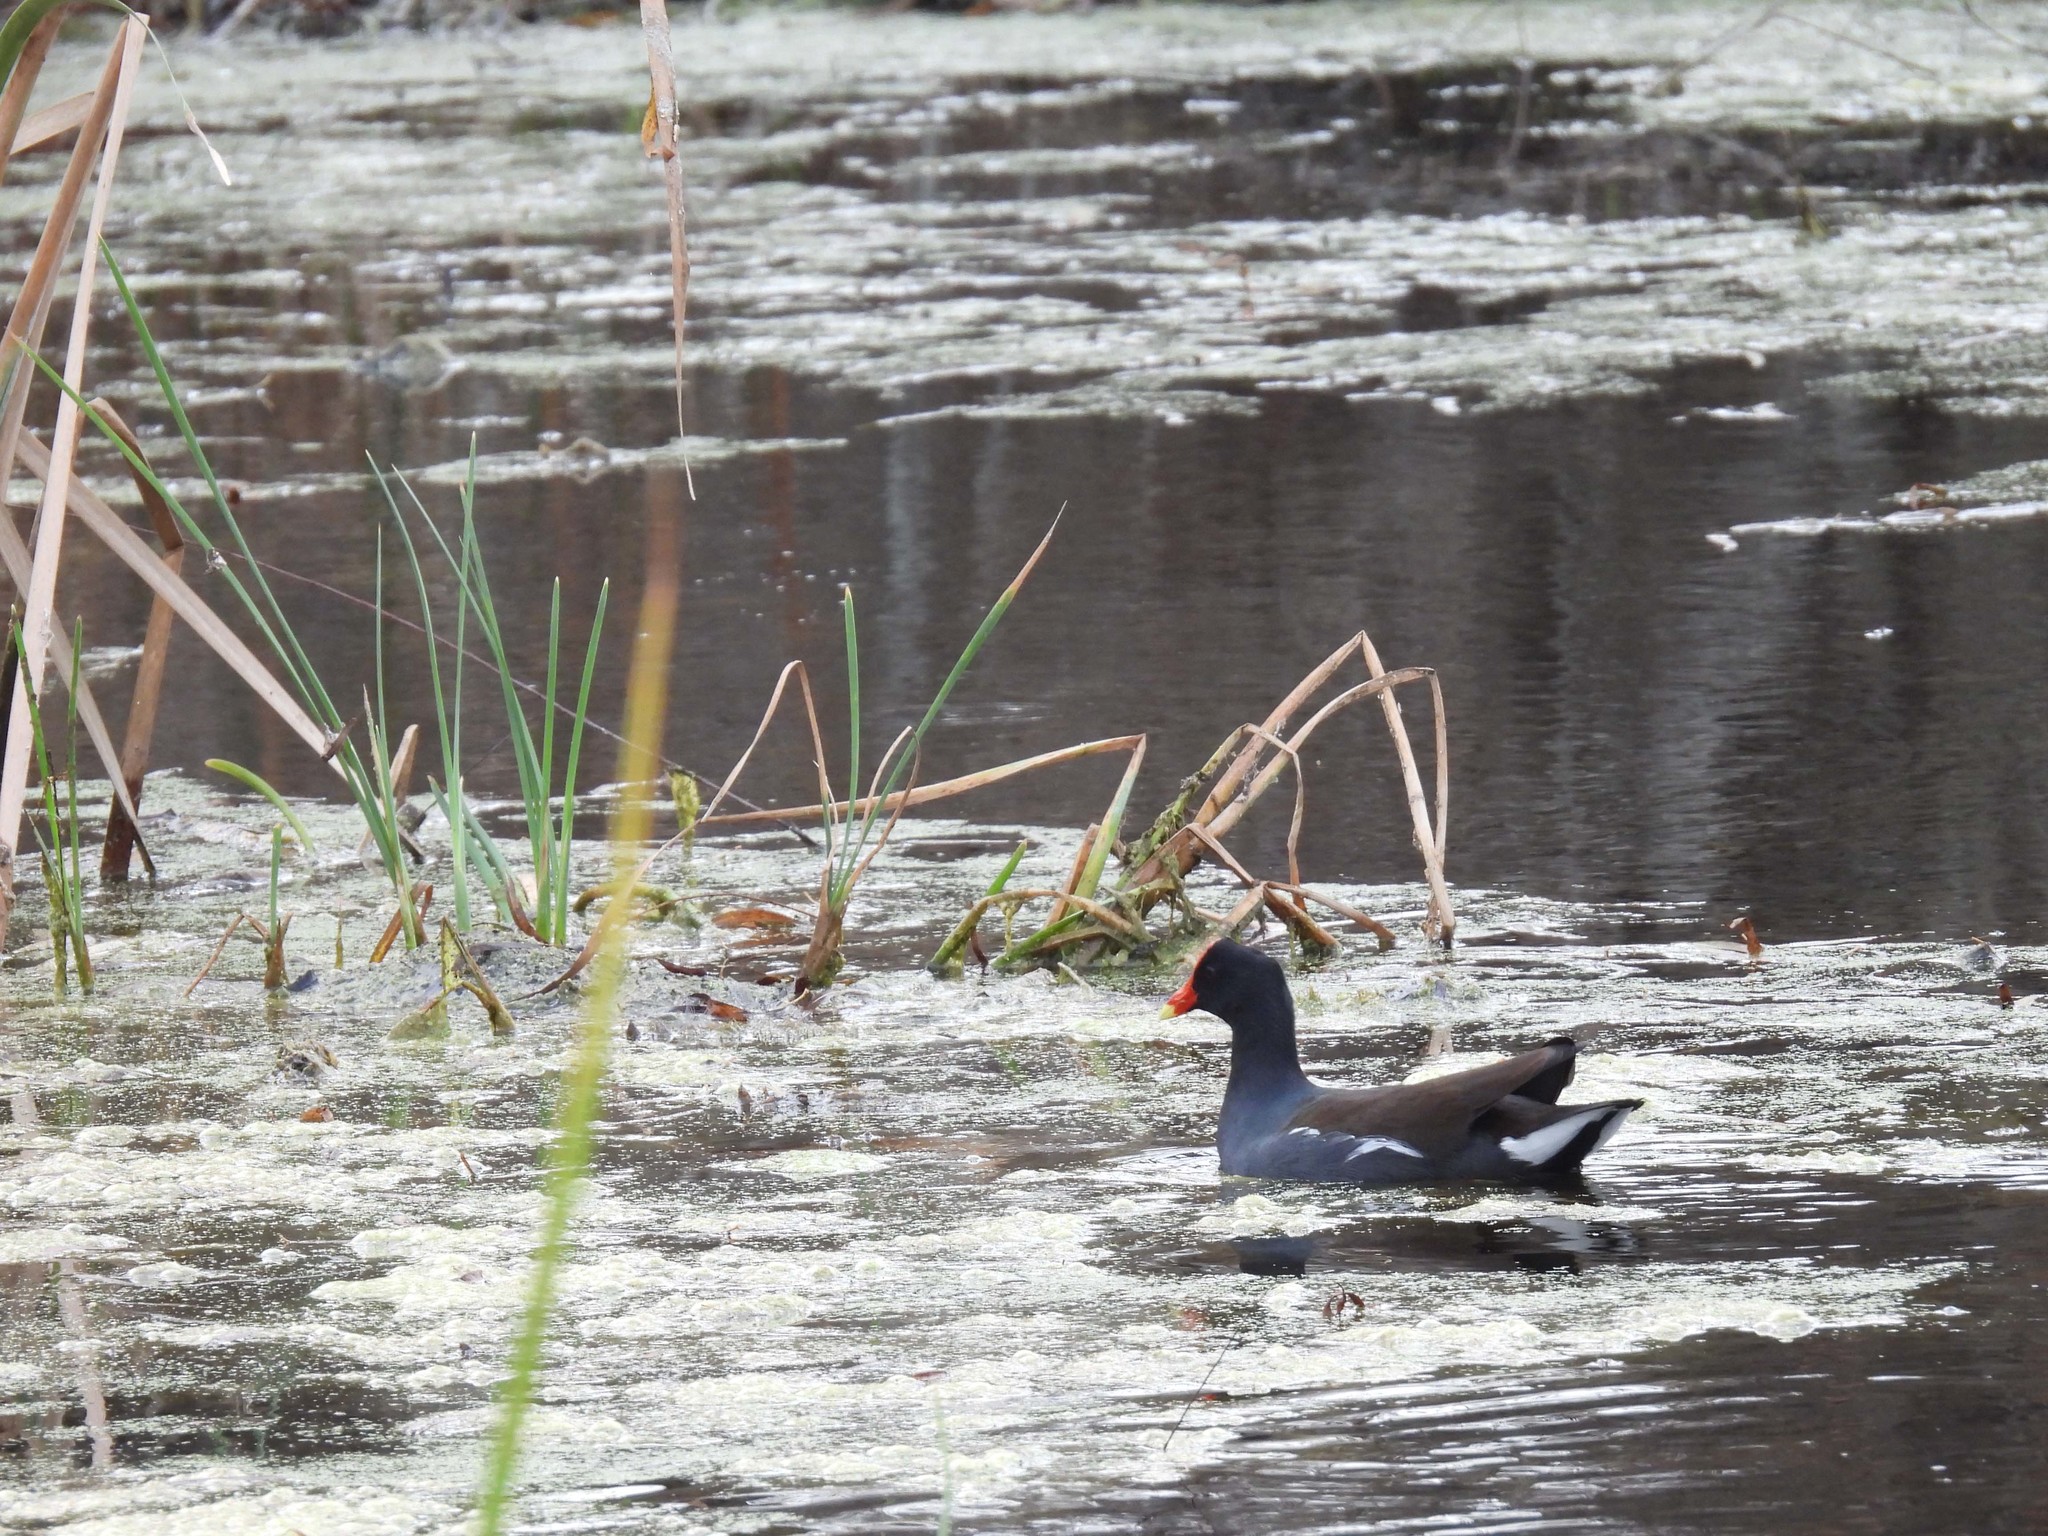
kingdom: Animalia
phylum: Chordata
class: Aves
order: Gruiformes
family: Rallidae
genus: Gallinula
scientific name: Gallinula chloropus
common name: Common moorhen
